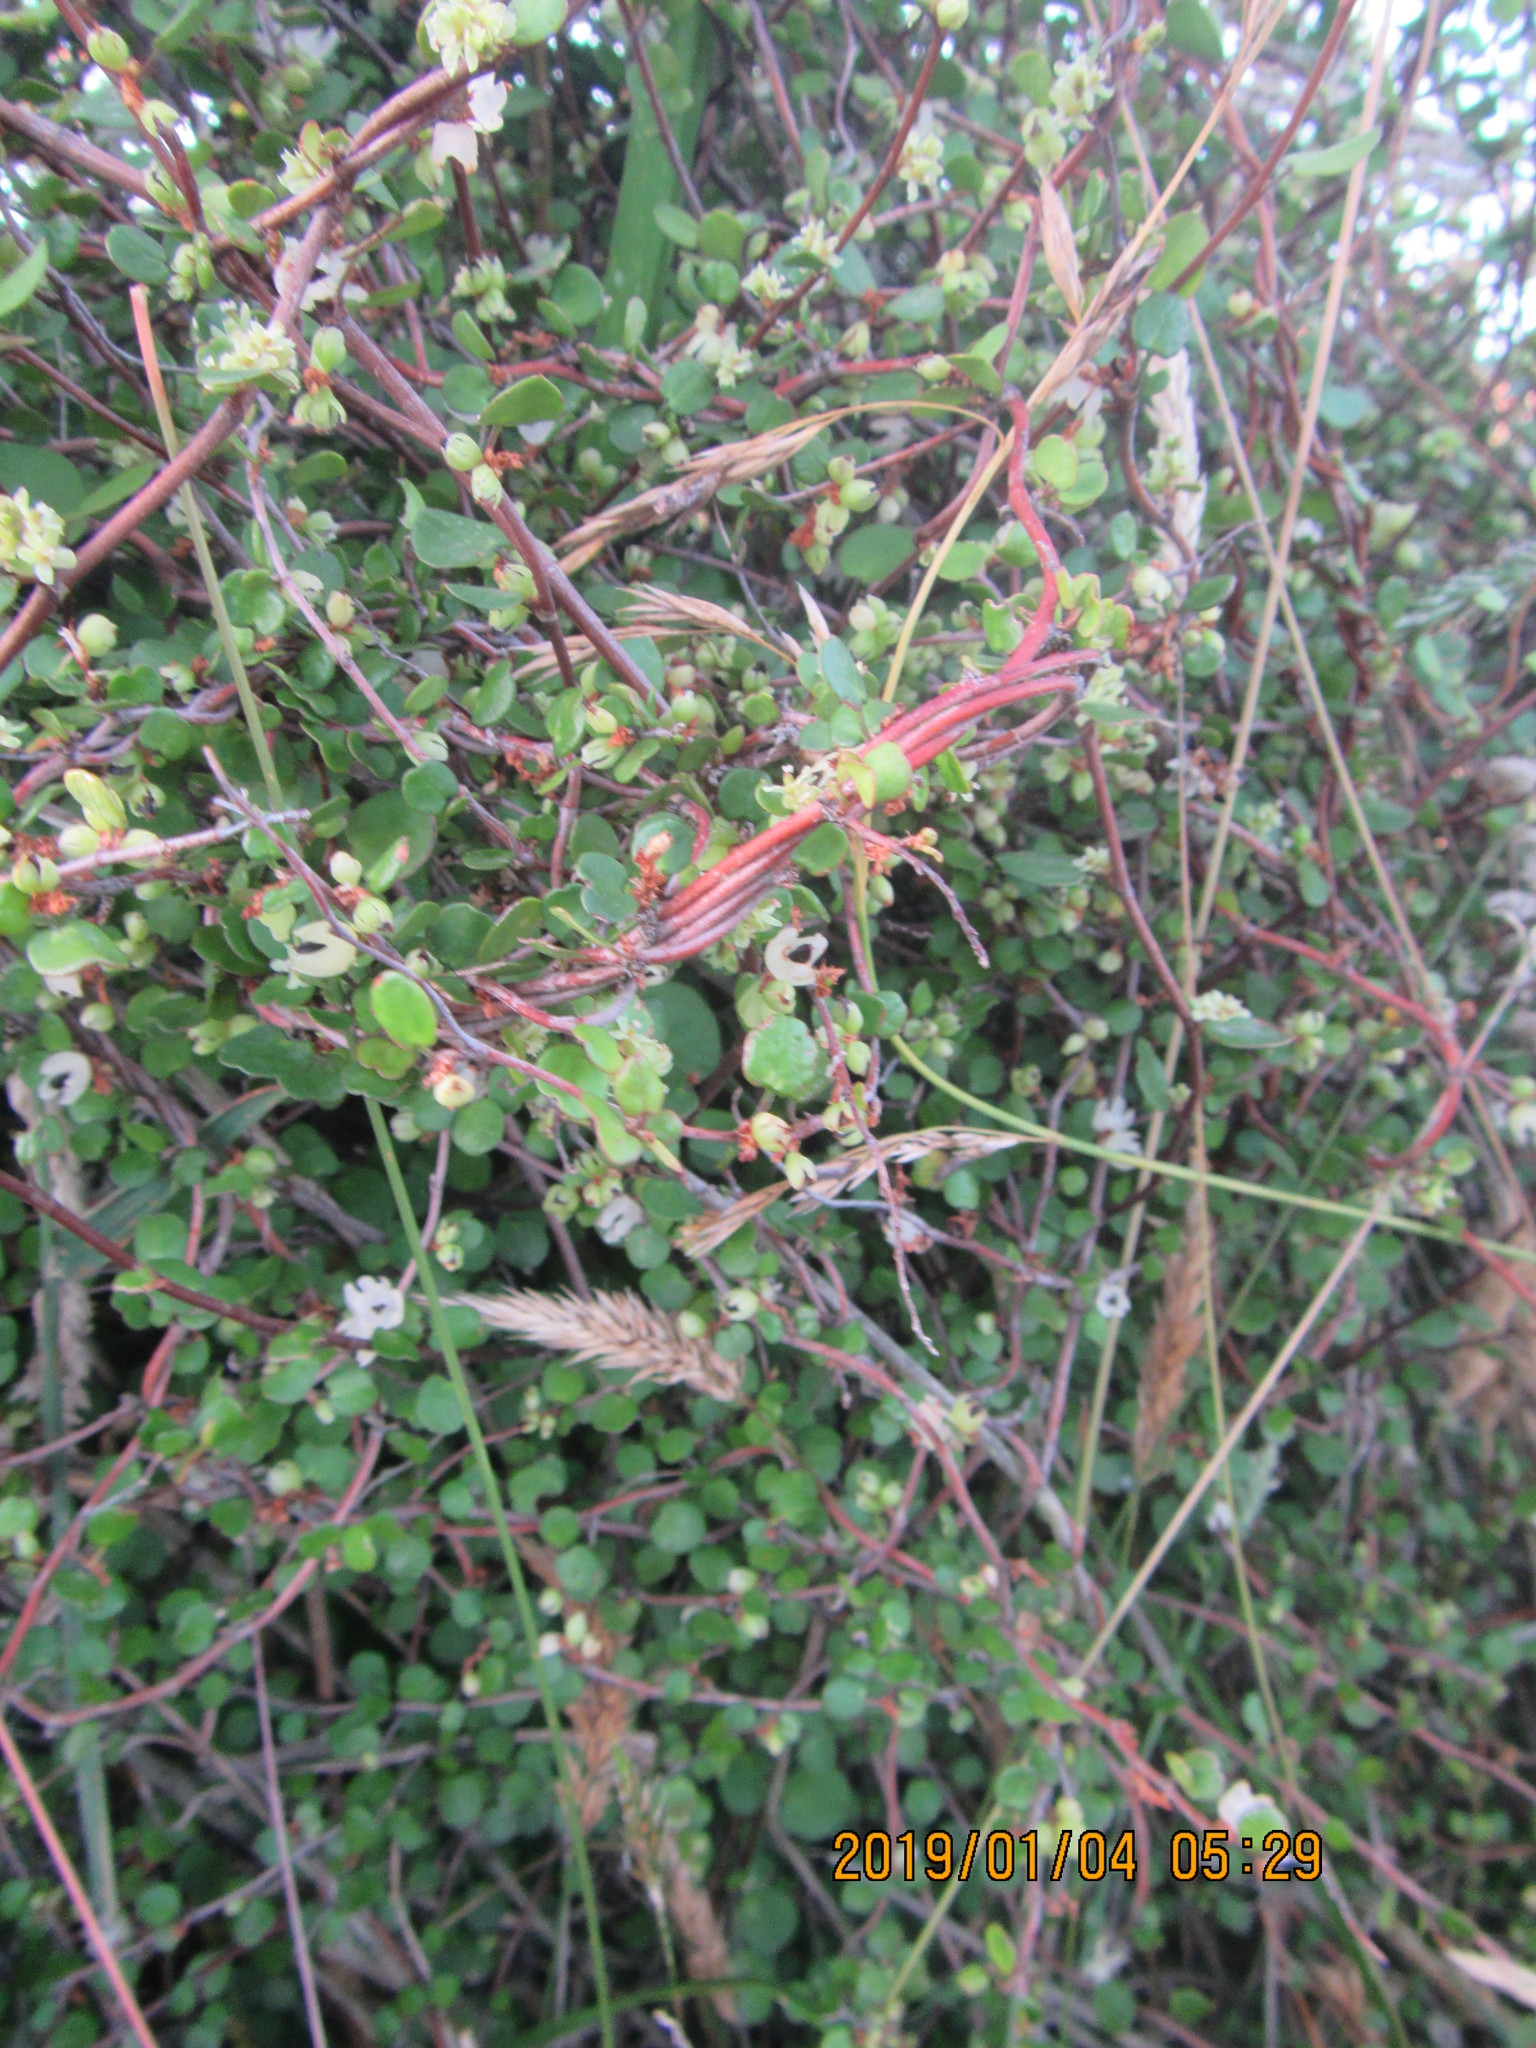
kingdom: Plantae
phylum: Tracheophyta
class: Magnoliopsida
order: Caryophyllales
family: Polygonaceae
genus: Muehlenbeckia
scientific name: Muehlenbeckia complexa
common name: Wireplant
